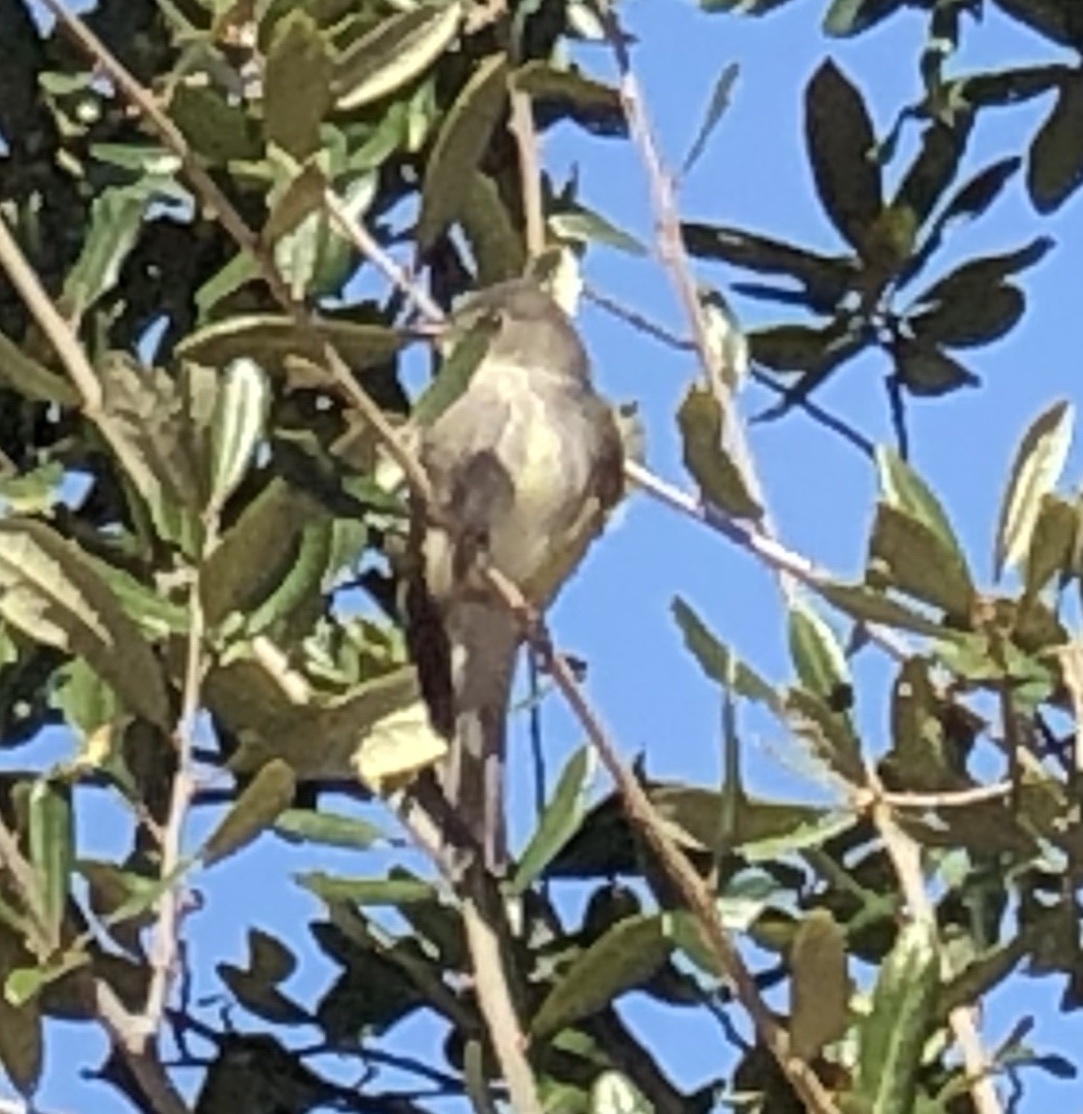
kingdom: Animalia
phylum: Chordata
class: Aves
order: Passeriformes
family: Tyrannidae
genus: Contopus
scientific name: Contopus
